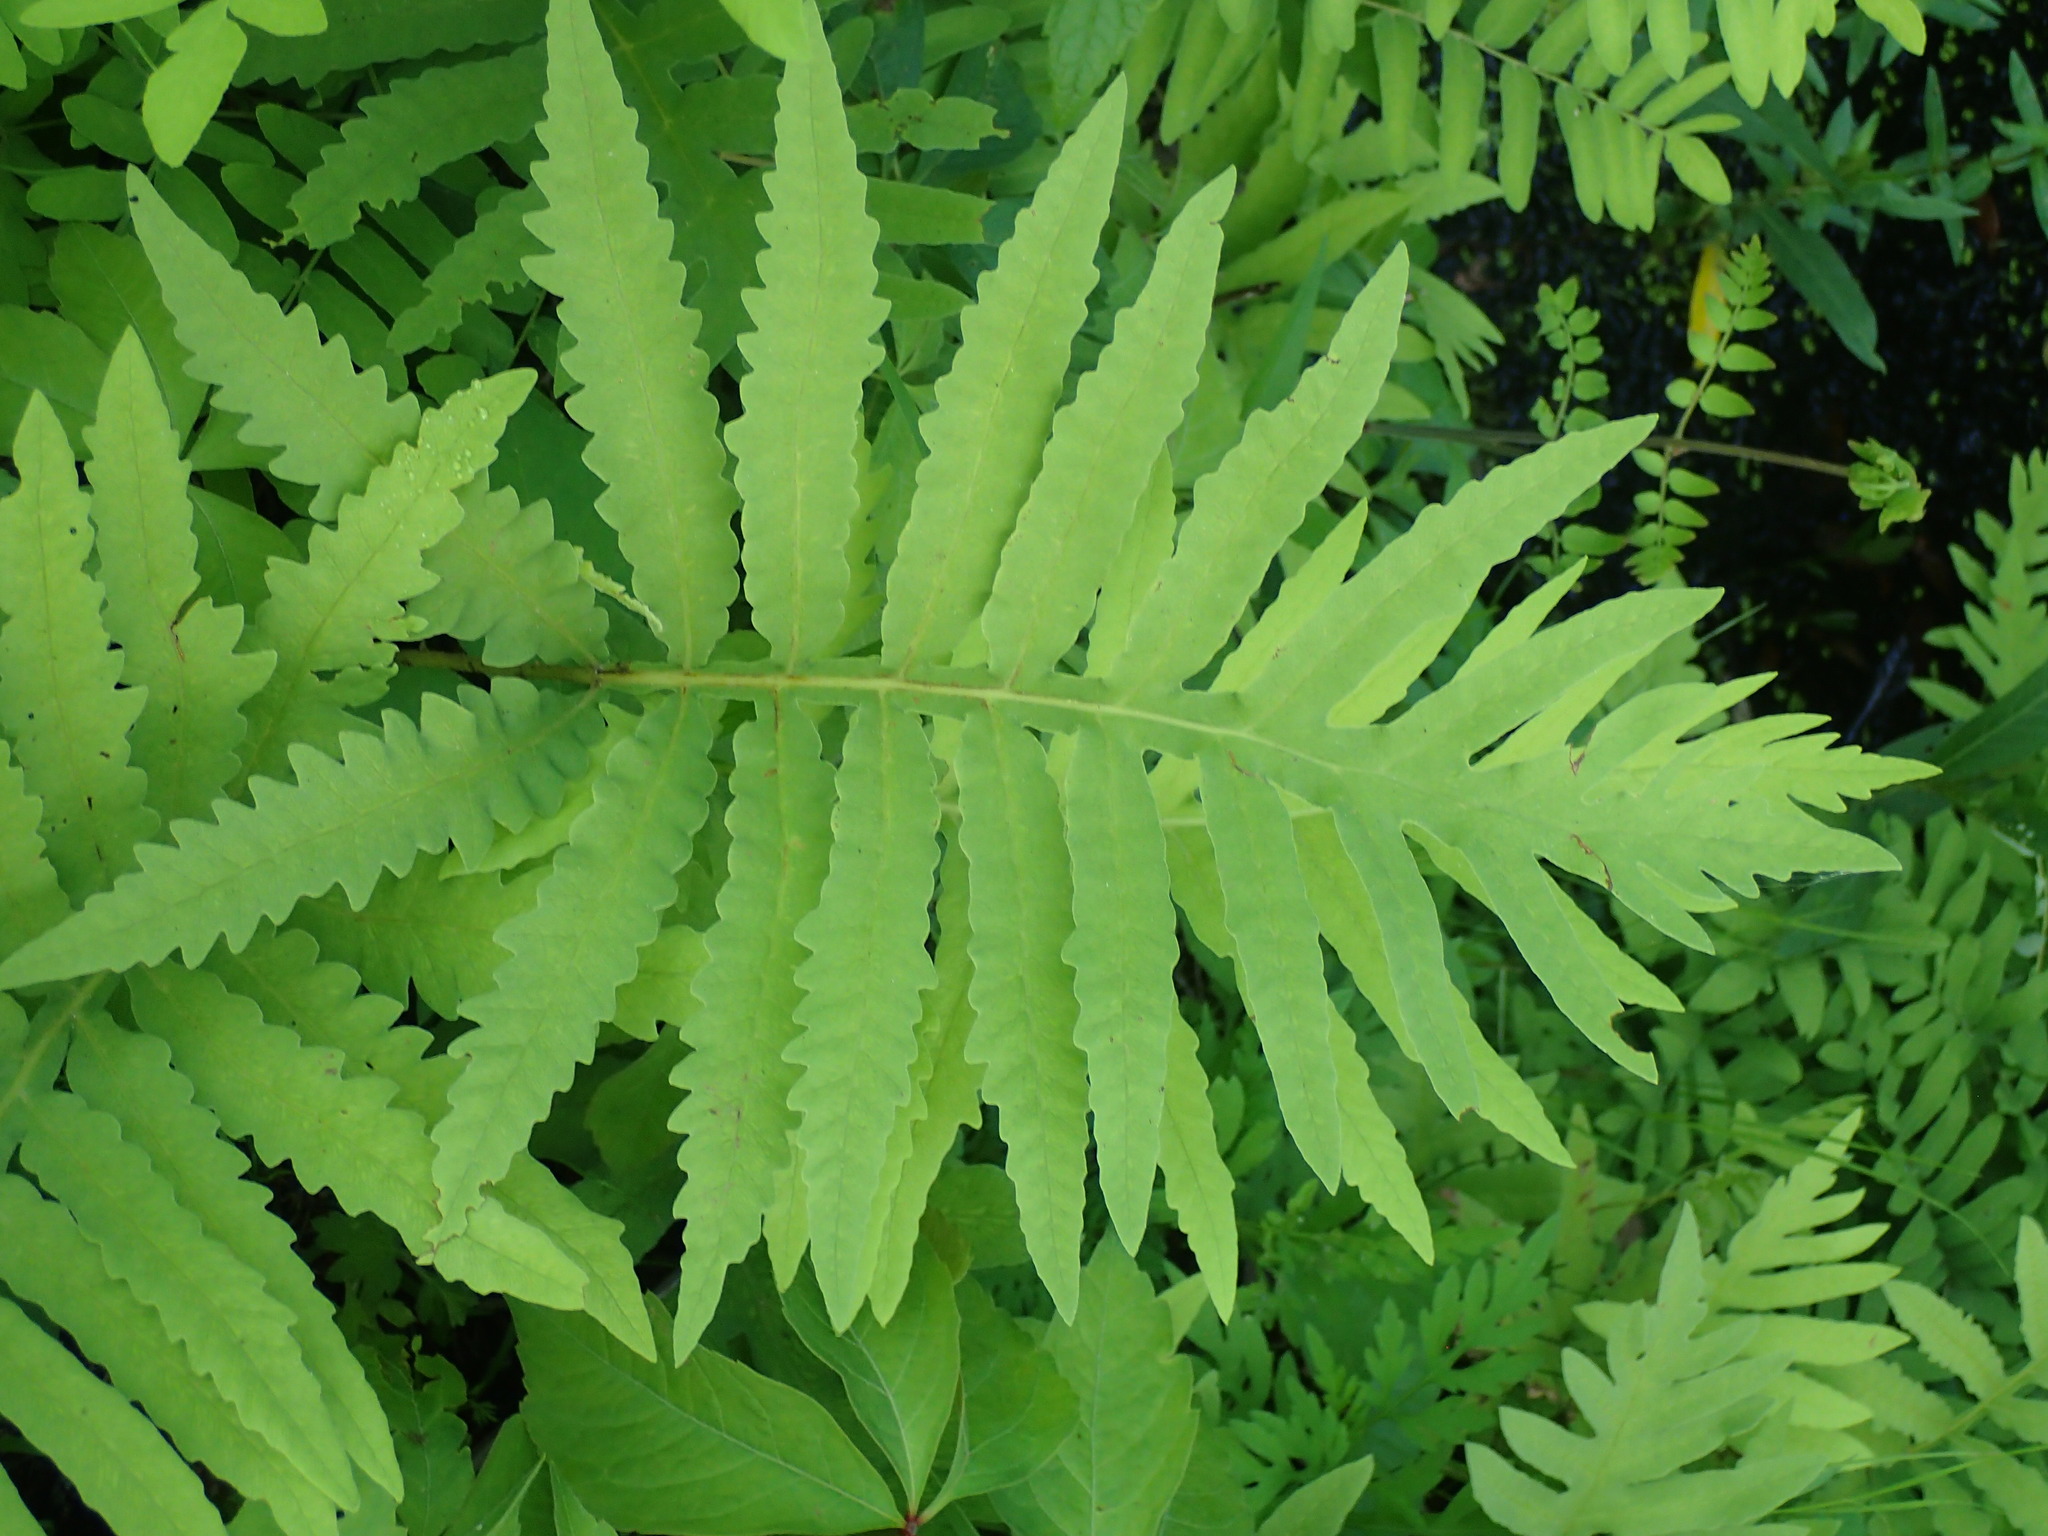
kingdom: Plantae
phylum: Tracheophyta
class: Polypodiopsida
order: Polypodiales
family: Onocleaceae
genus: Onoclea
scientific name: Onoclea sensibilis
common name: Sensitive fern
